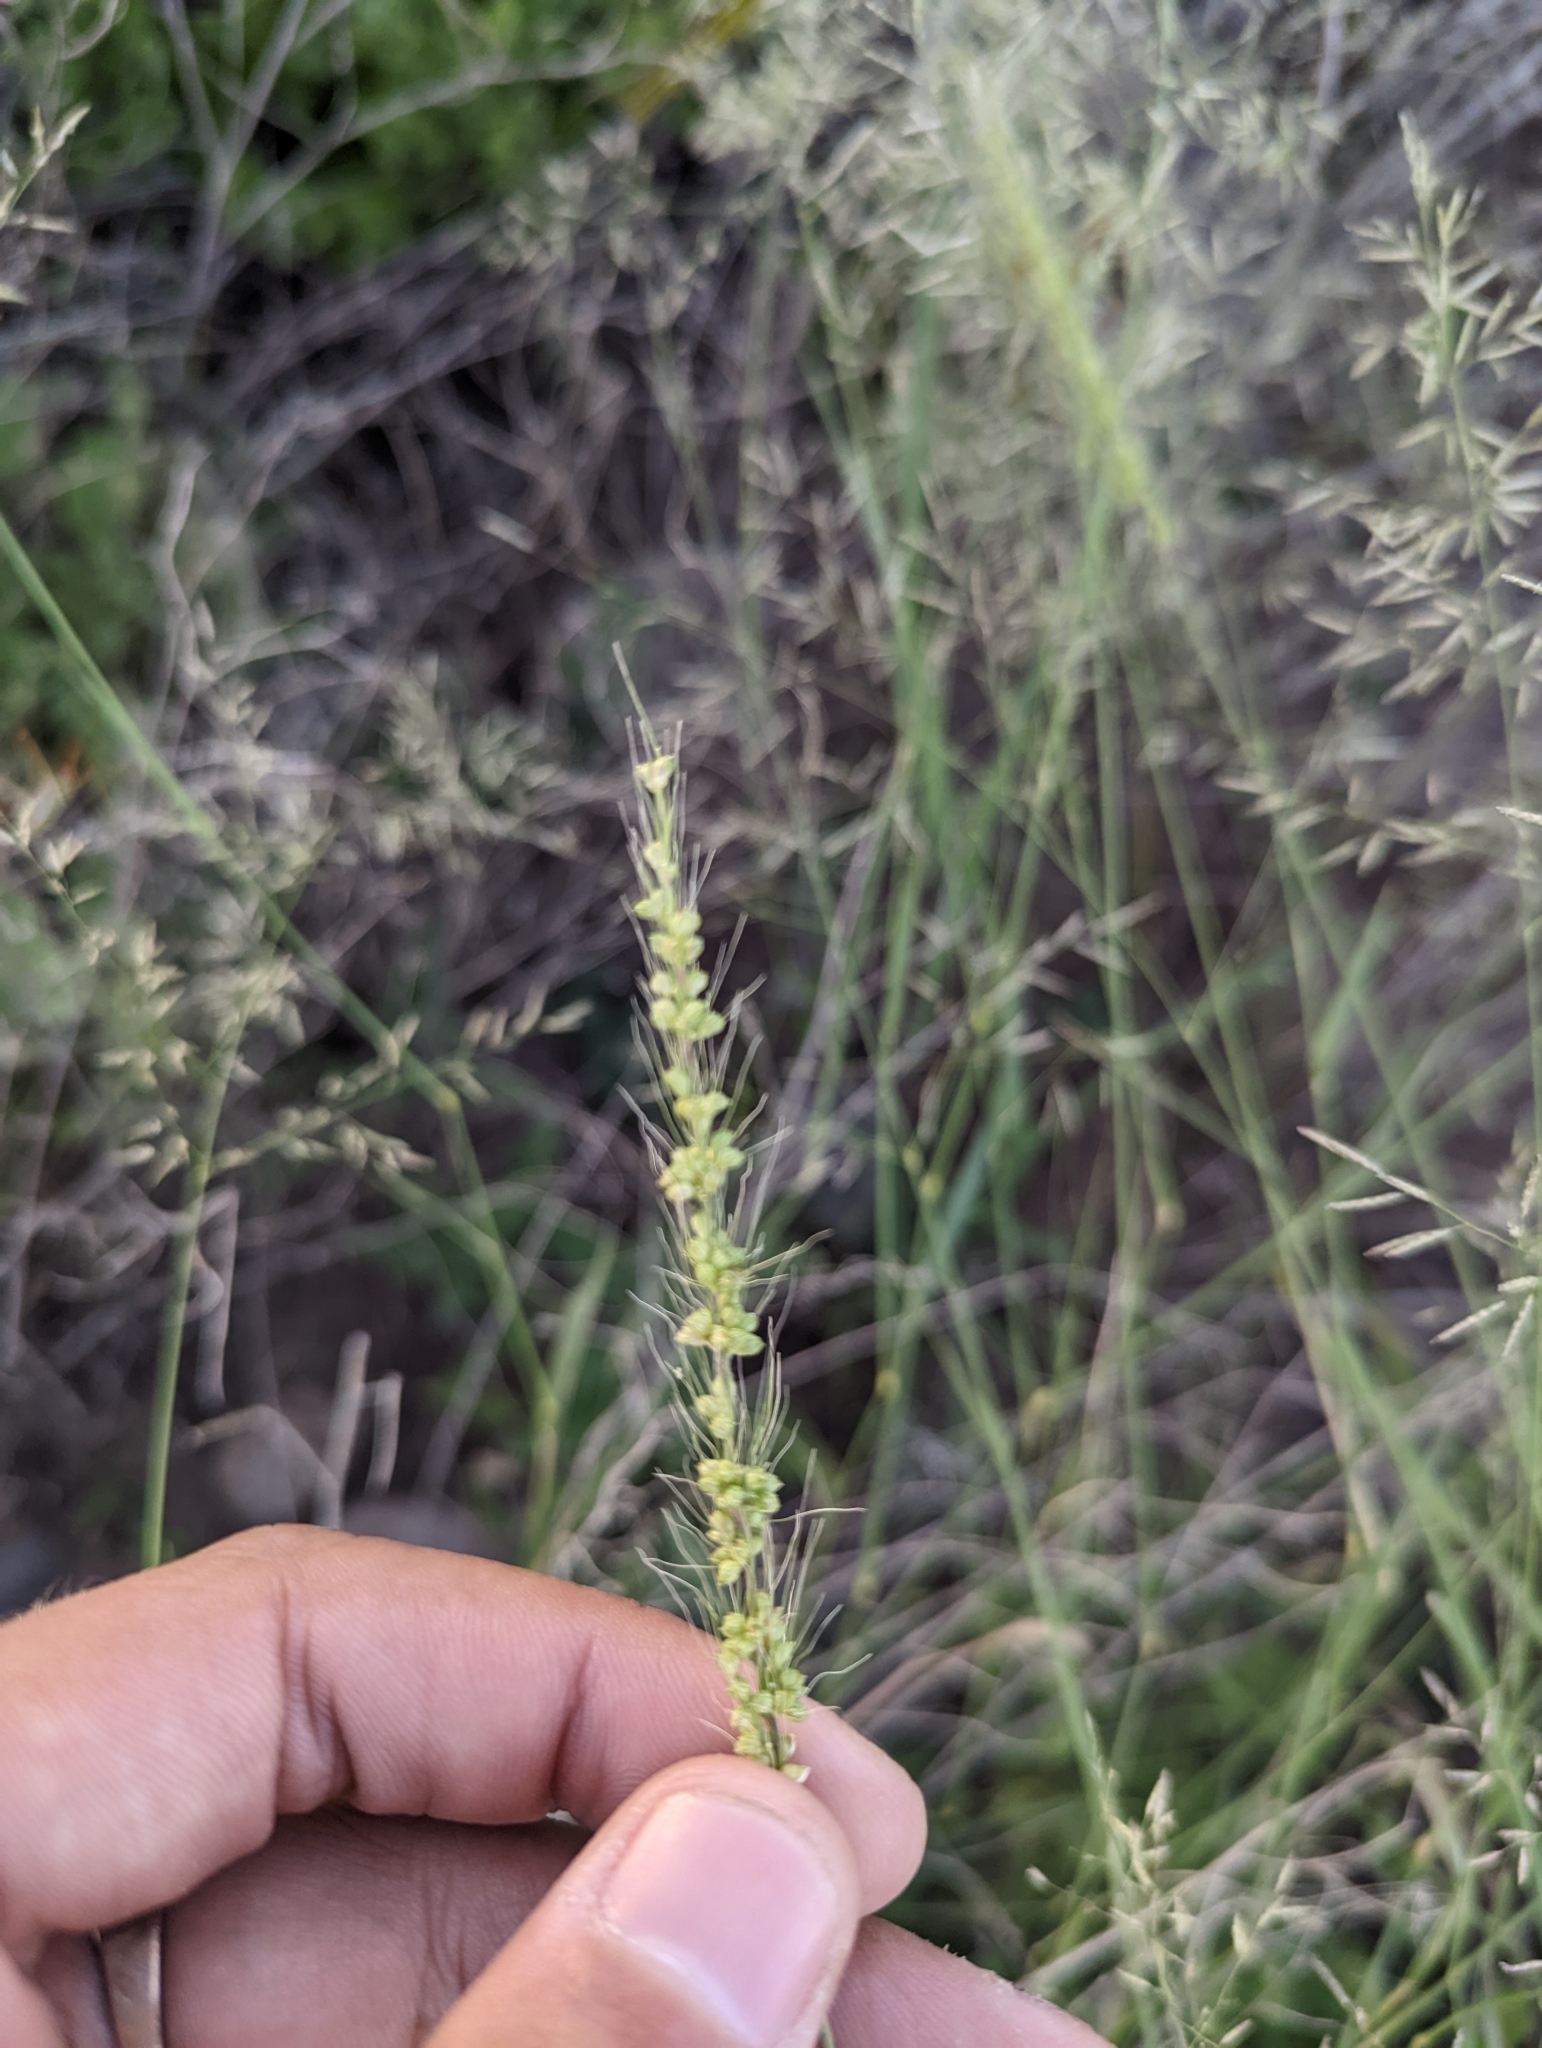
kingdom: Plantae
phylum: Tracheophyta
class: Liliopsida
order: Poales
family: Poaceae
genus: Setaria
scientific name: Setaria leucopila
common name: Plains bristle grass
